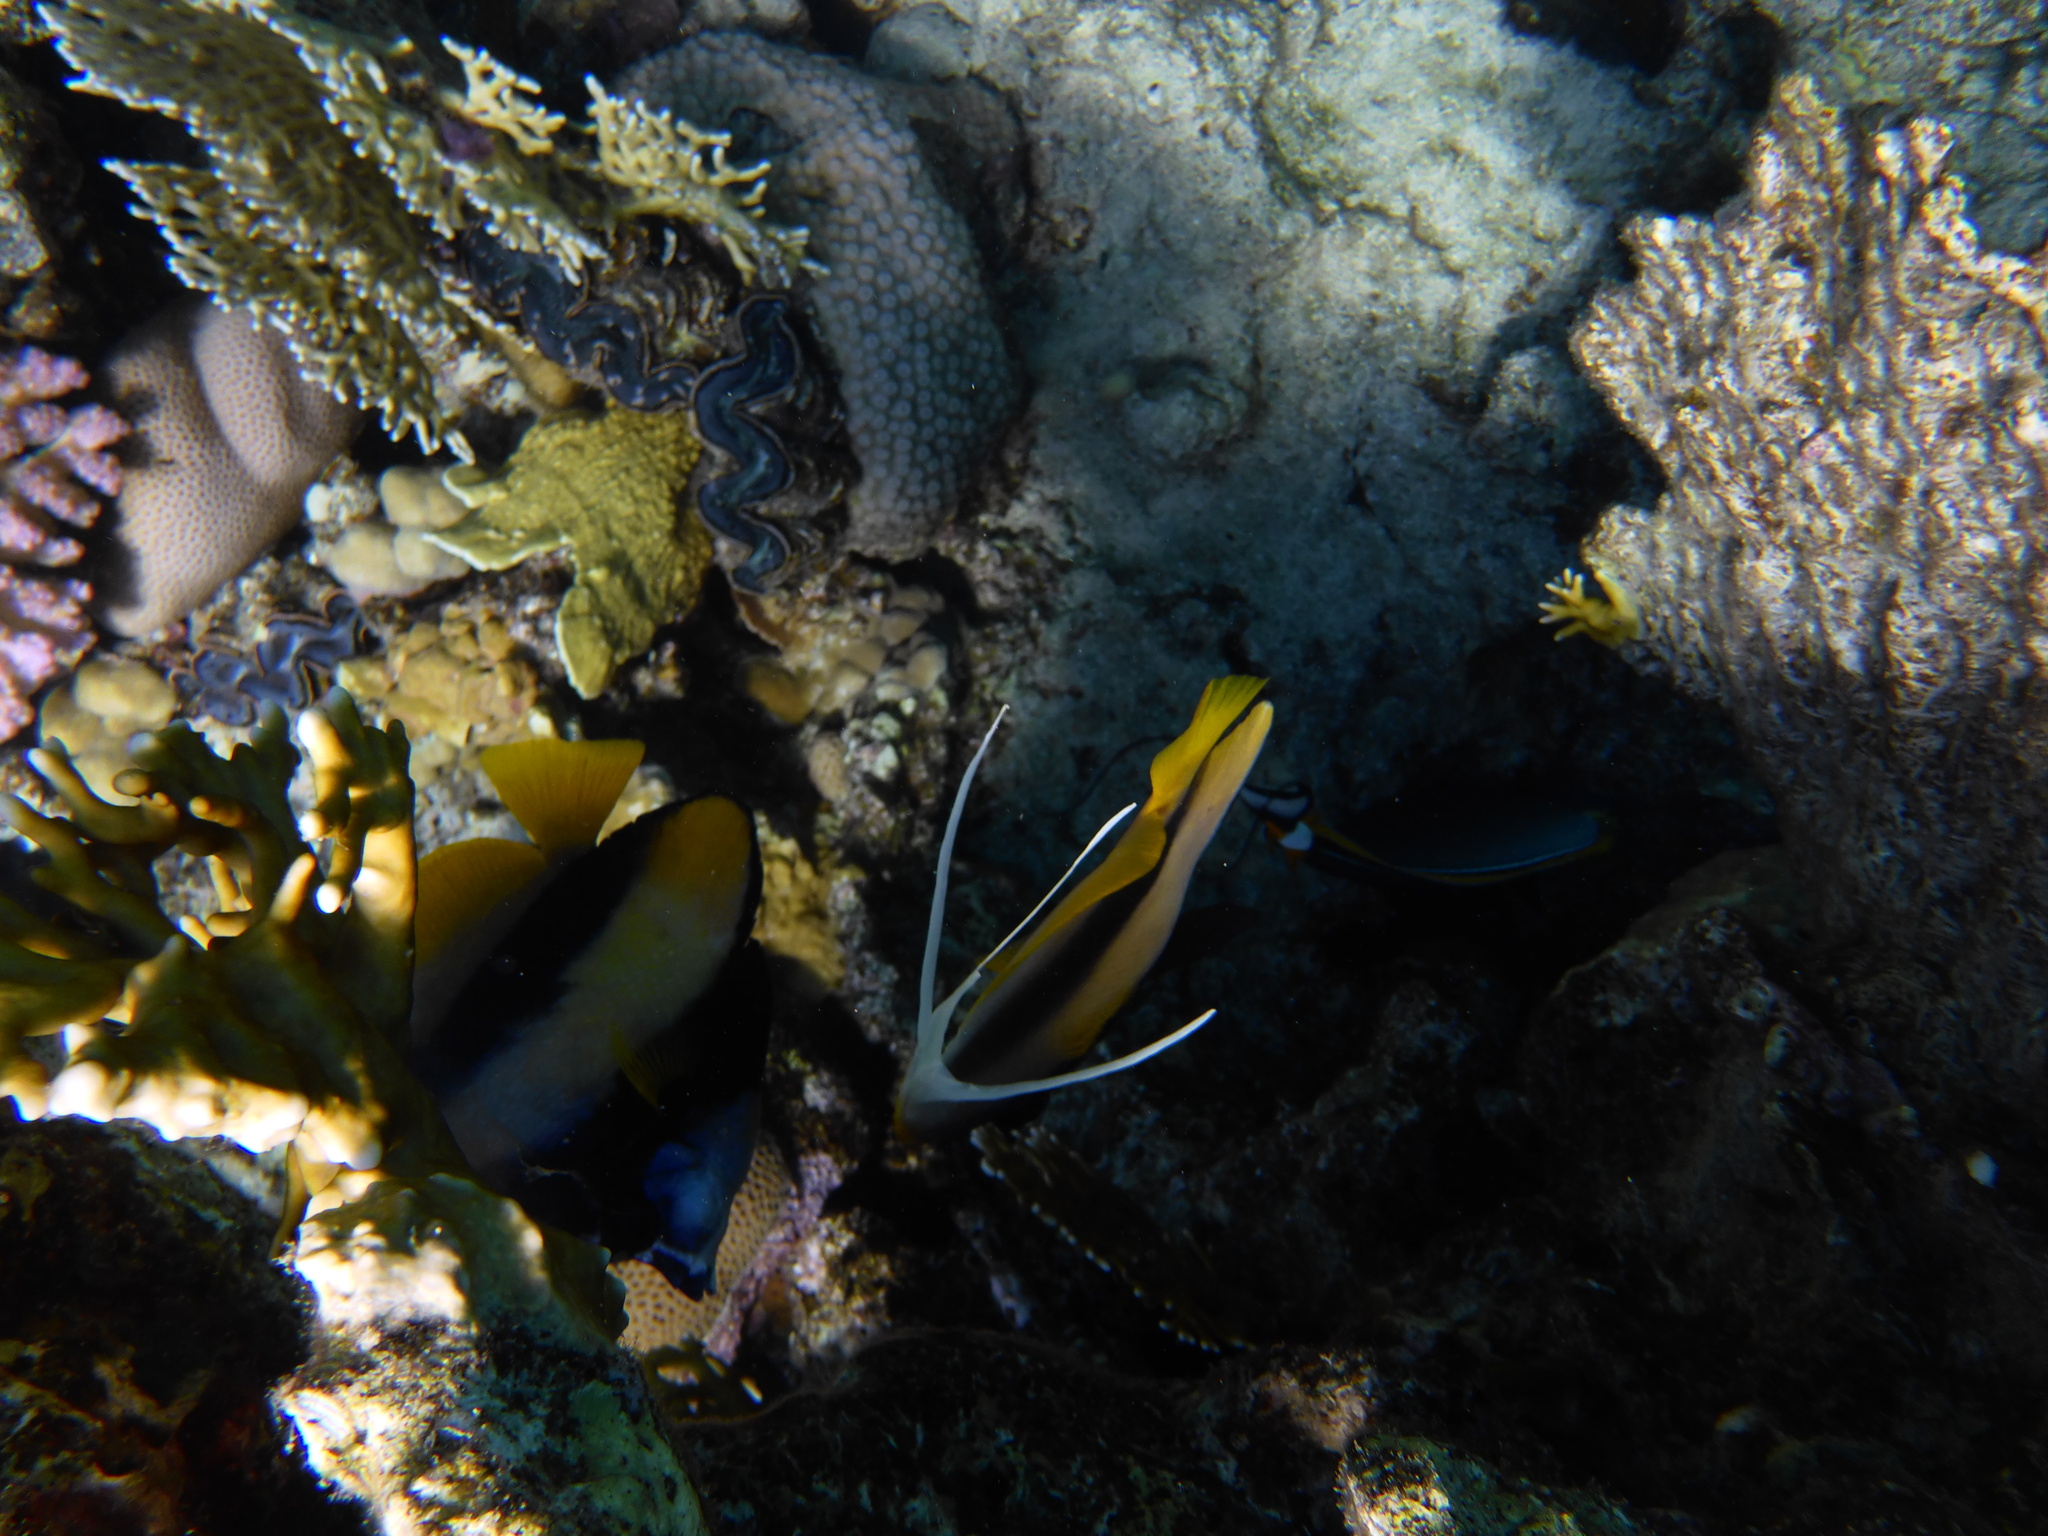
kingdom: Animalia
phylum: Chordata
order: Perciformes
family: Chaetodontidae
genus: Heniochus
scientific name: Heniochus intermedius
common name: Red sea bannerfish
